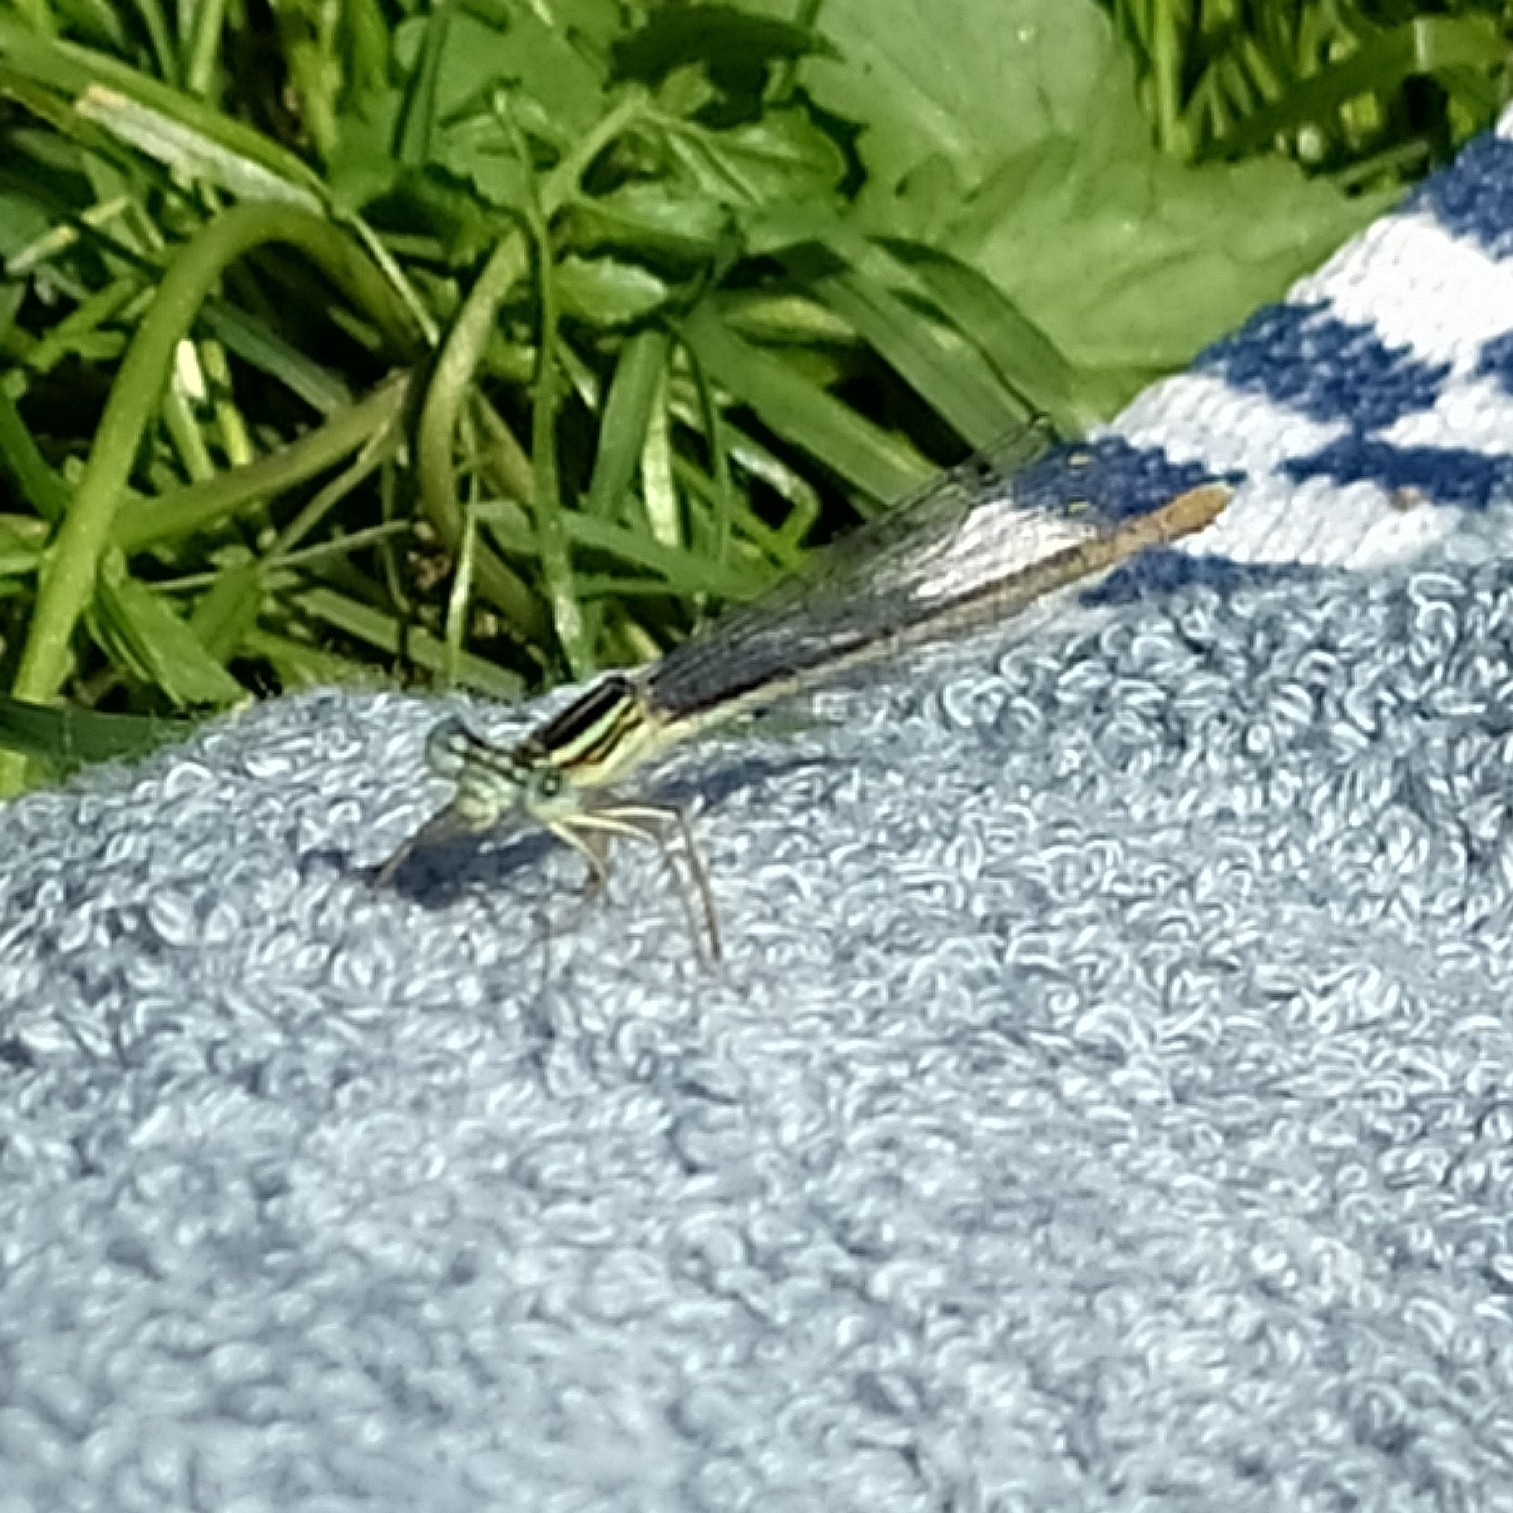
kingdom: Animalia
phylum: Arthropoda
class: Insecta
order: Odonata
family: Platycnemididae
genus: Platycnemis
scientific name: Platycnemis pennipes
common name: White-legged damselfly
